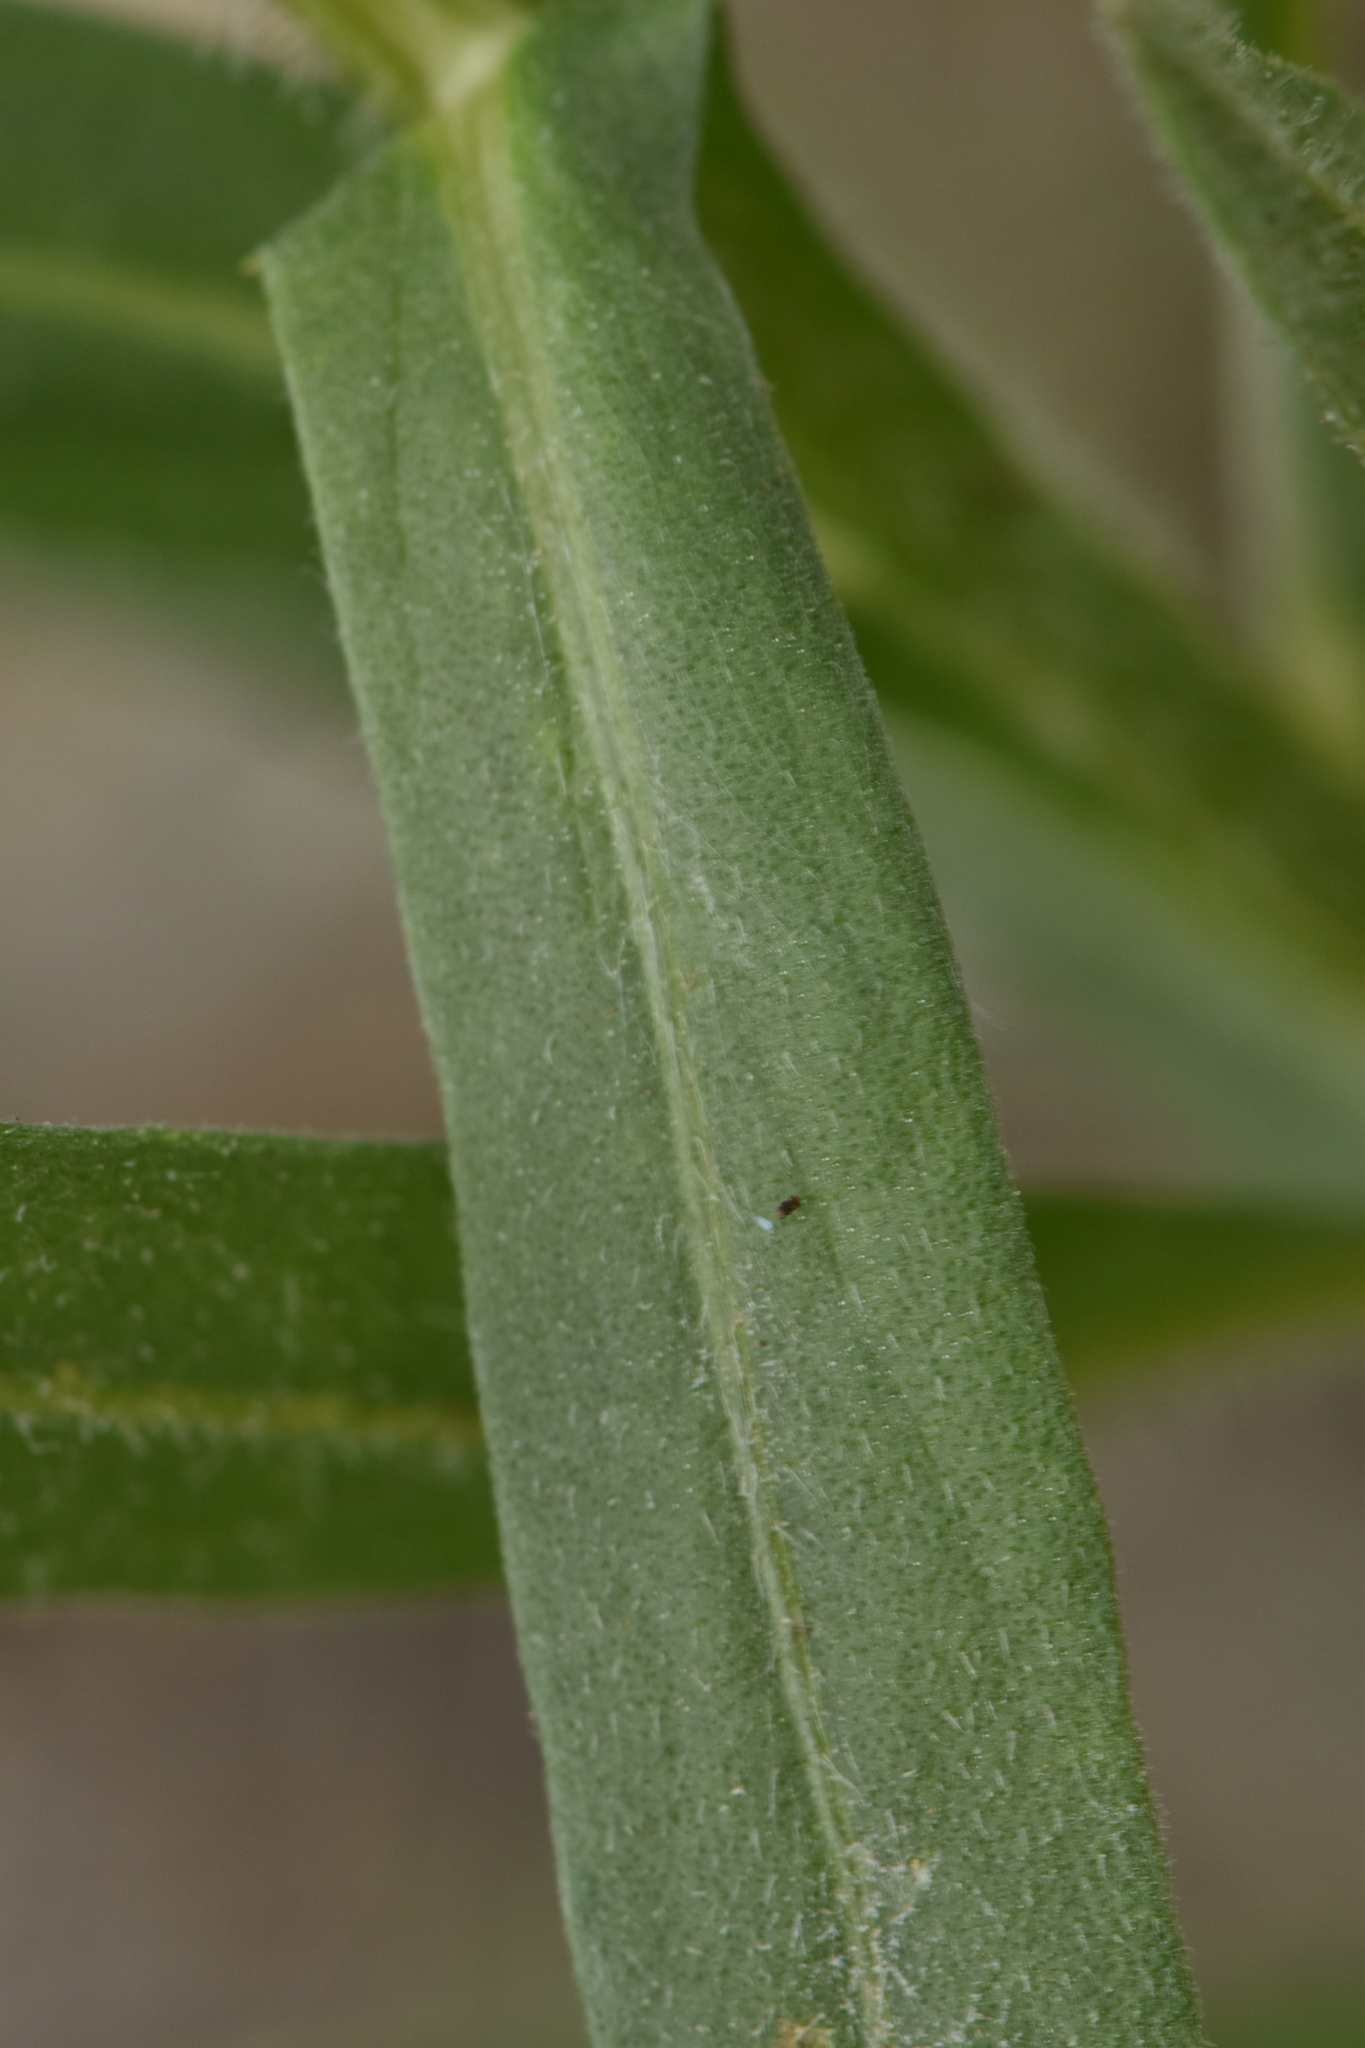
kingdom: Plantae
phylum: Tracheophyta
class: Magnoliopsida
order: Asterales
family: Asteraceae
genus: Centaurea
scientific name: Centaurea sulphurea
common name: Sulphur knapweed
